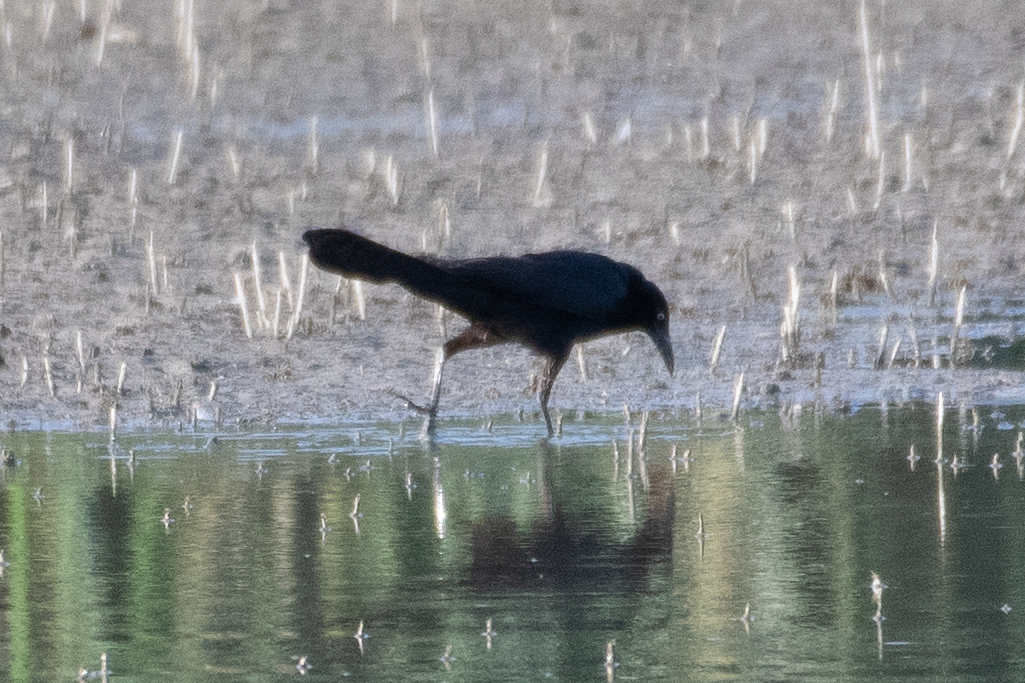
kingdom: Animalia
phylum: Chordata
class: Aves
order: Passeriformes
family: Icteridae
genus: Quiscalus
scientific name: Quiscalus mexicanus
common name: Great-tailed grackle
